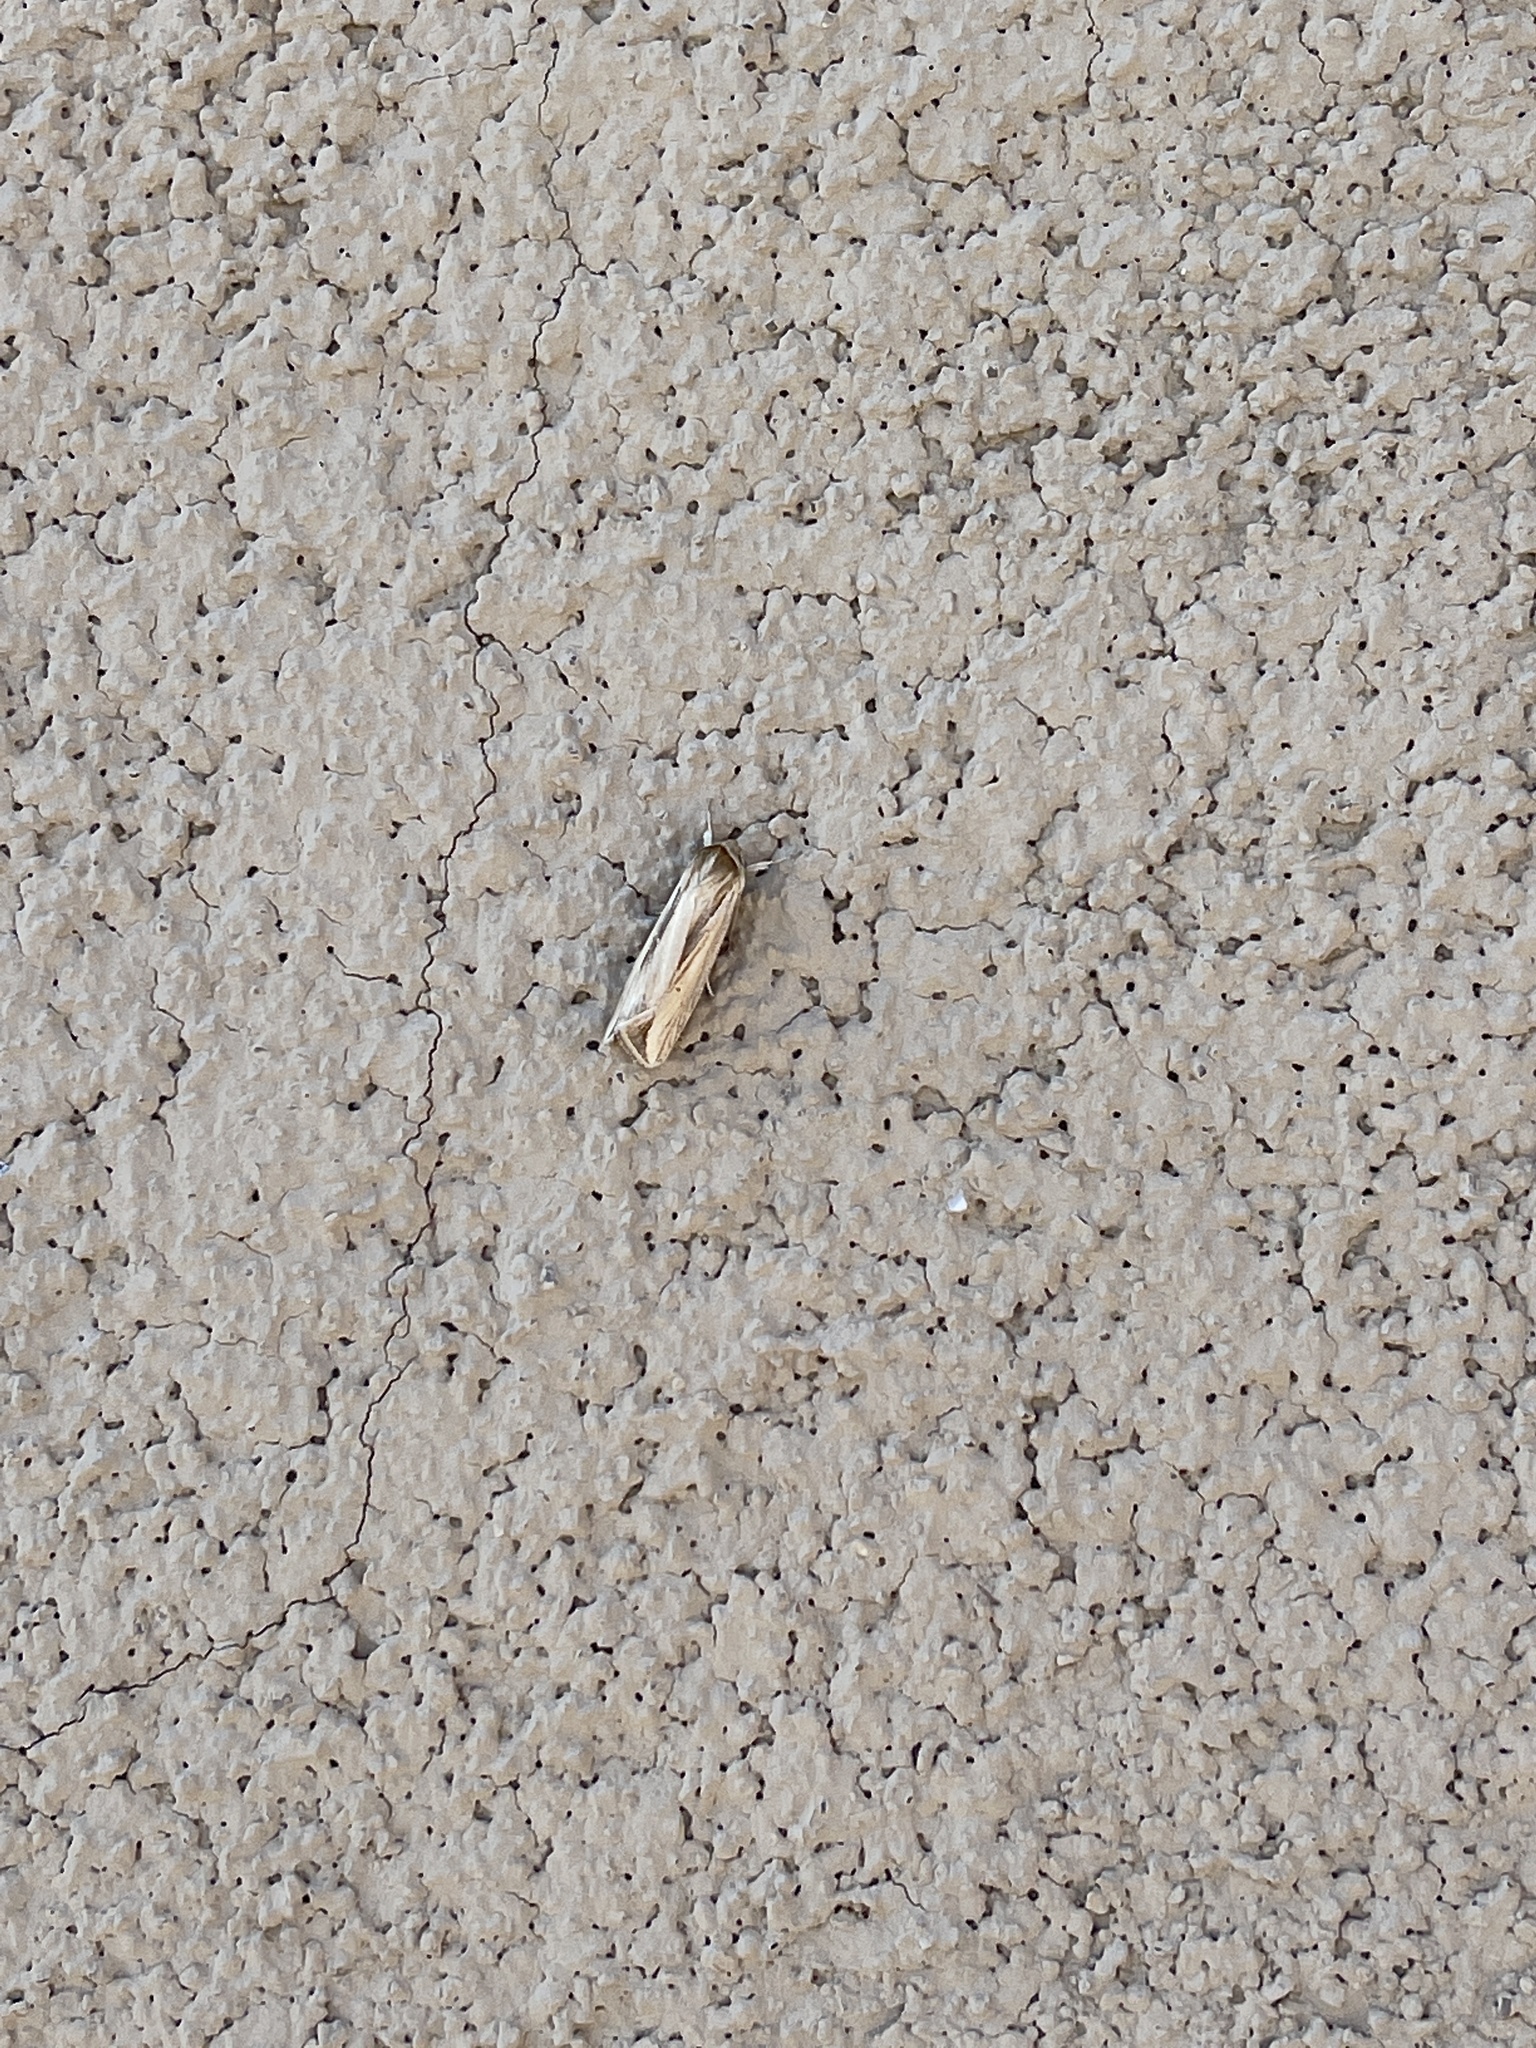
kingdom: Animalia
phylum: Arthropoda
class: Insecta
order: Lepidoptera
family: Noctuidae
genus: Dargida
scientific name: Dargida diffusa
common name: Wheat head armyworm
